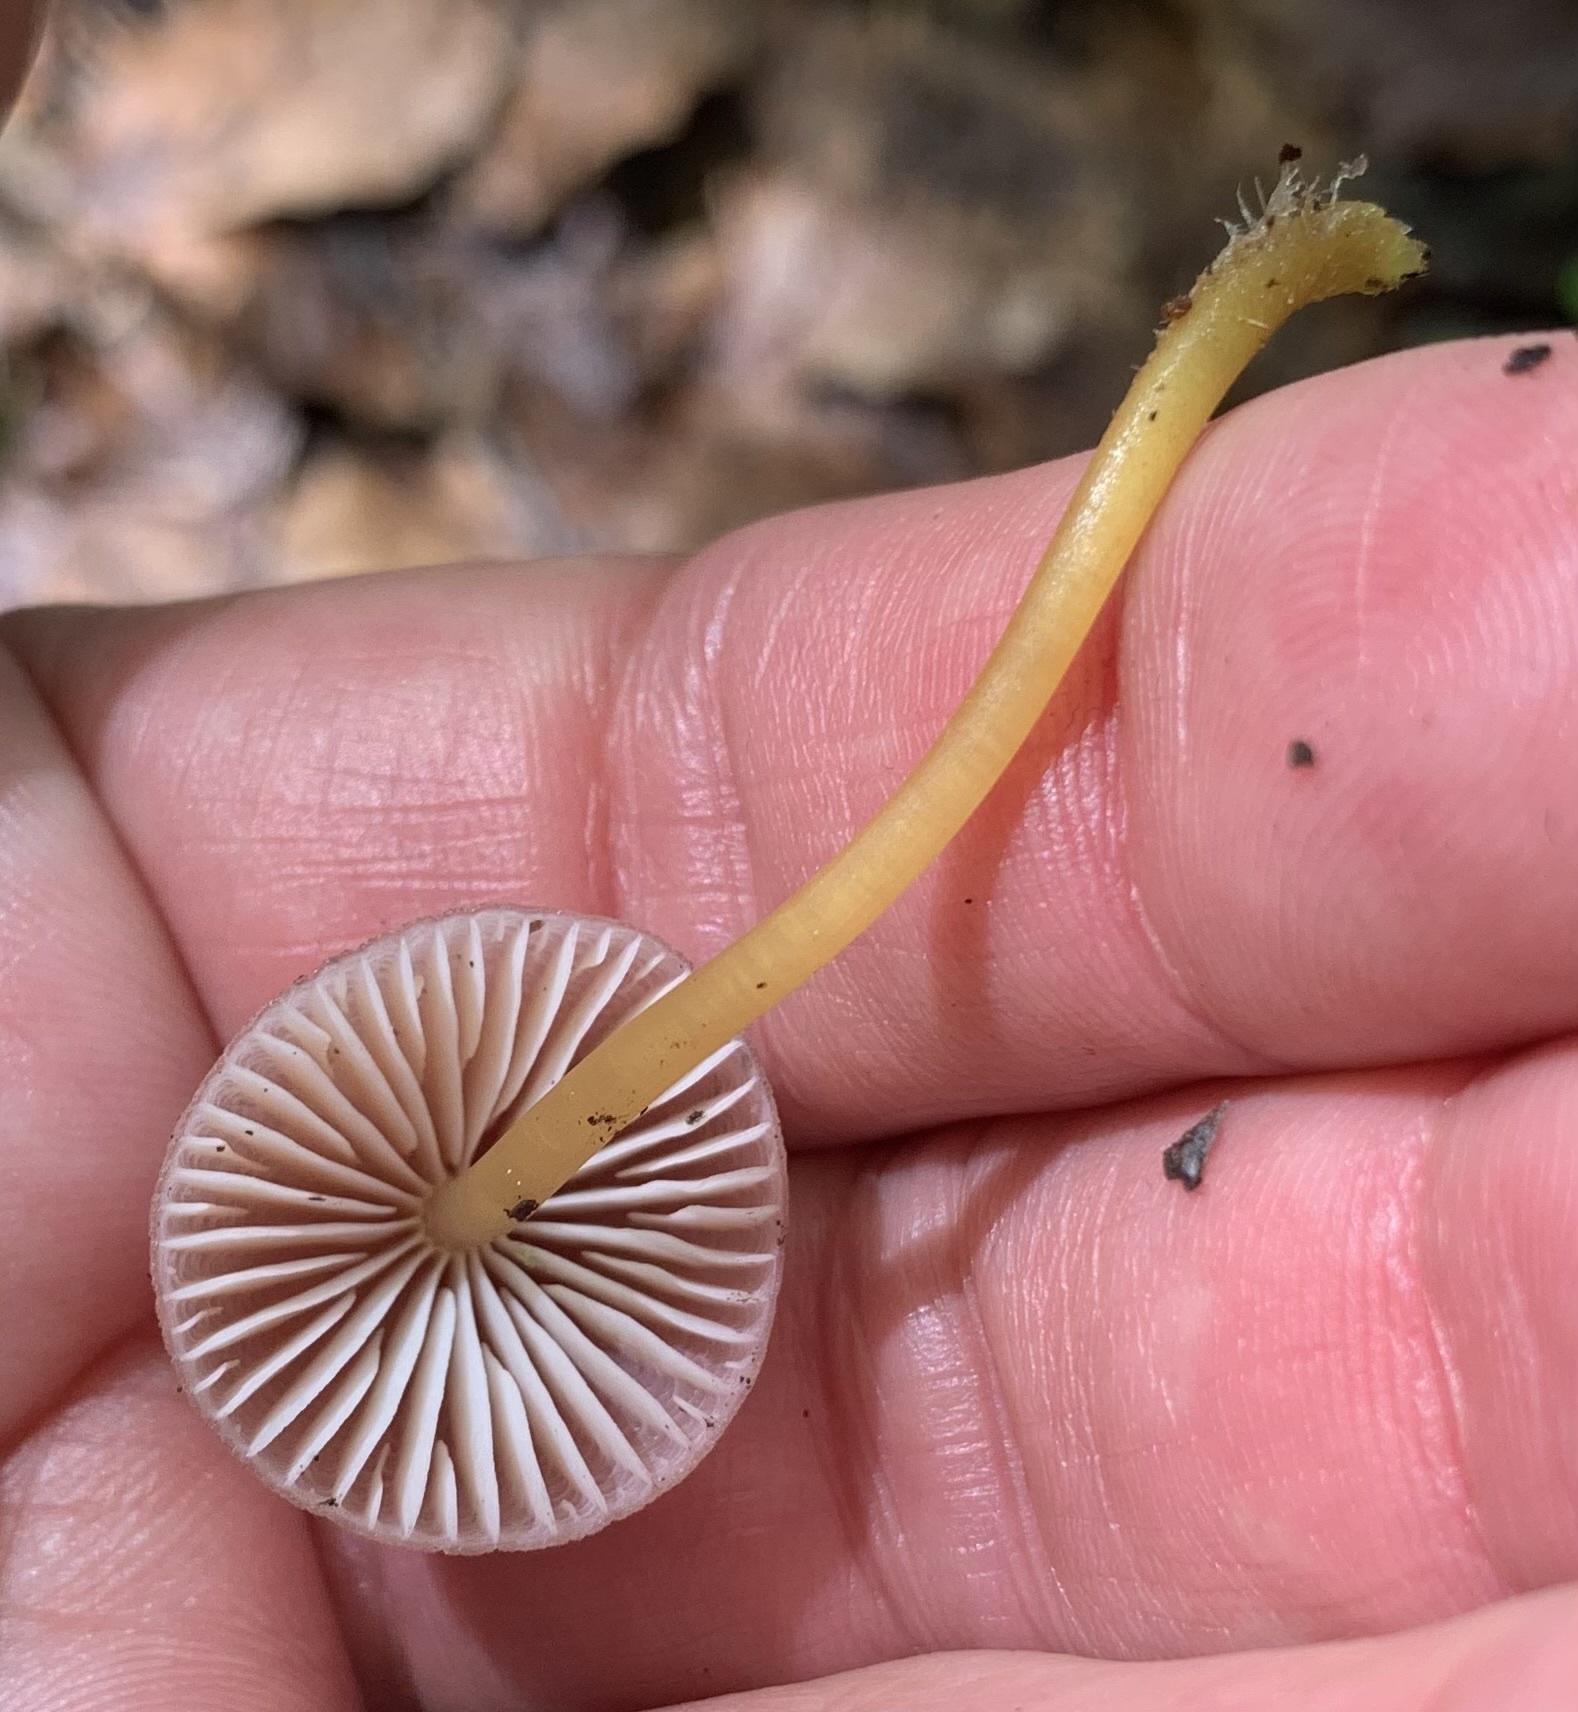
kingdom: Fungi
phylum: Basidiomycota
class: Agaricomycetes
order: Agaricales
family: Mycenaceae
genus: Mycena
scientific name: Mycena renati
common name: Beautiful bonnet
